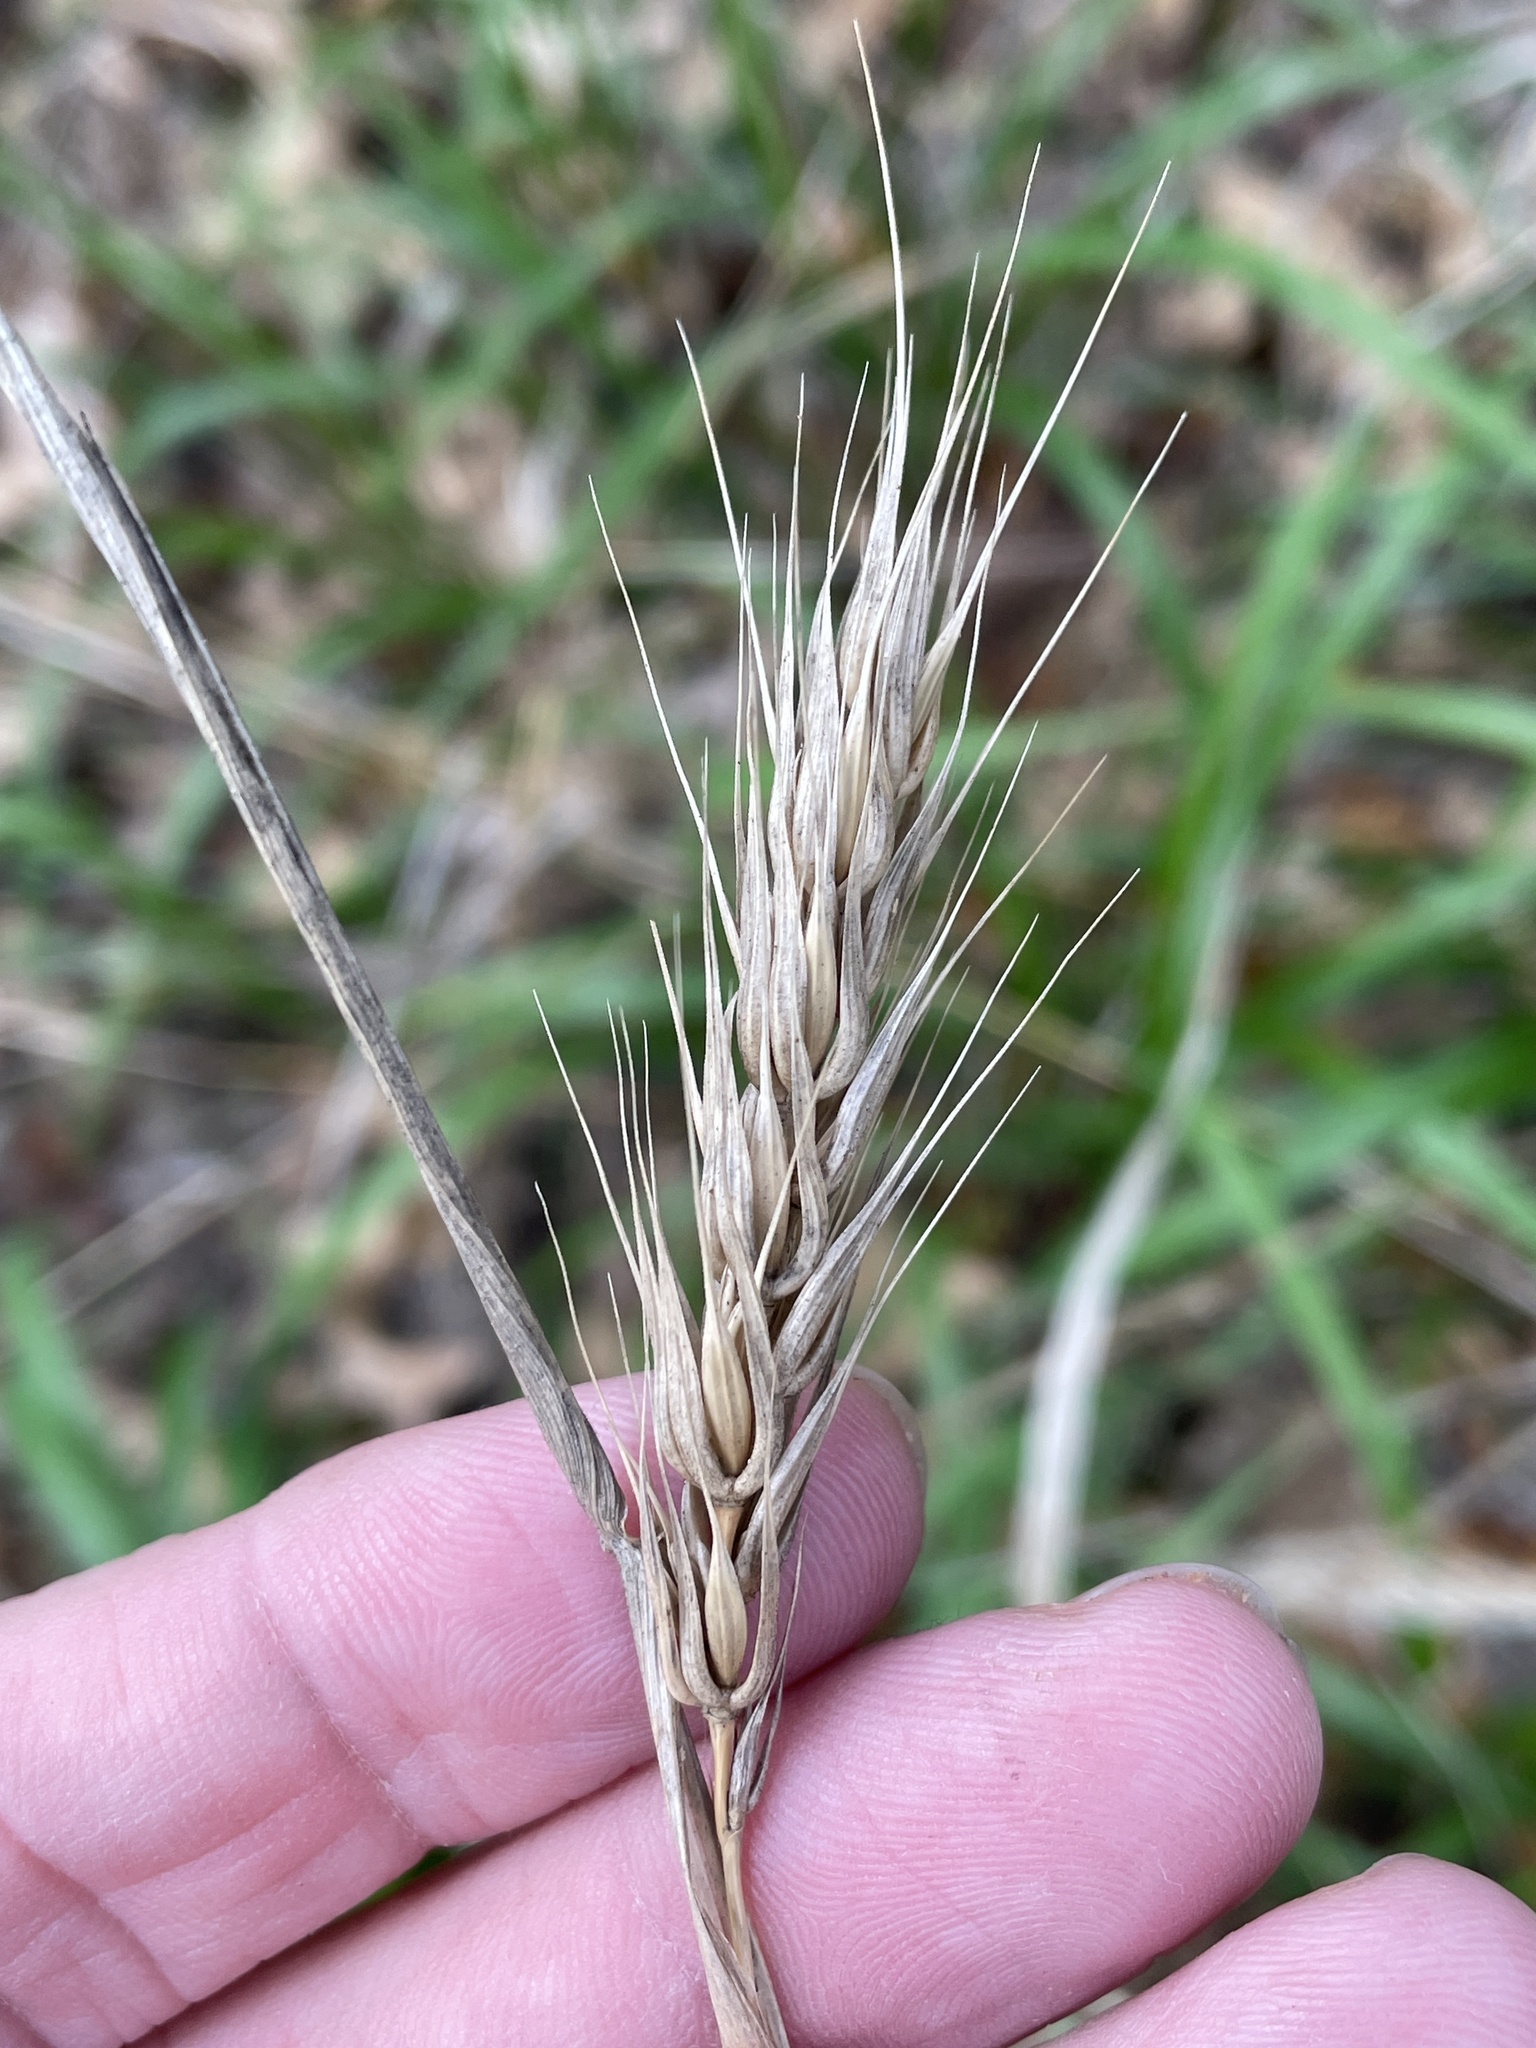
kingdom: Plantae
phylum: Tracheophyta
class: Liliopsida
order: Poales
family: Poaceae
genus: Elymus
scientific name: Elymus virginicus
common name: Common eastern wildrye
